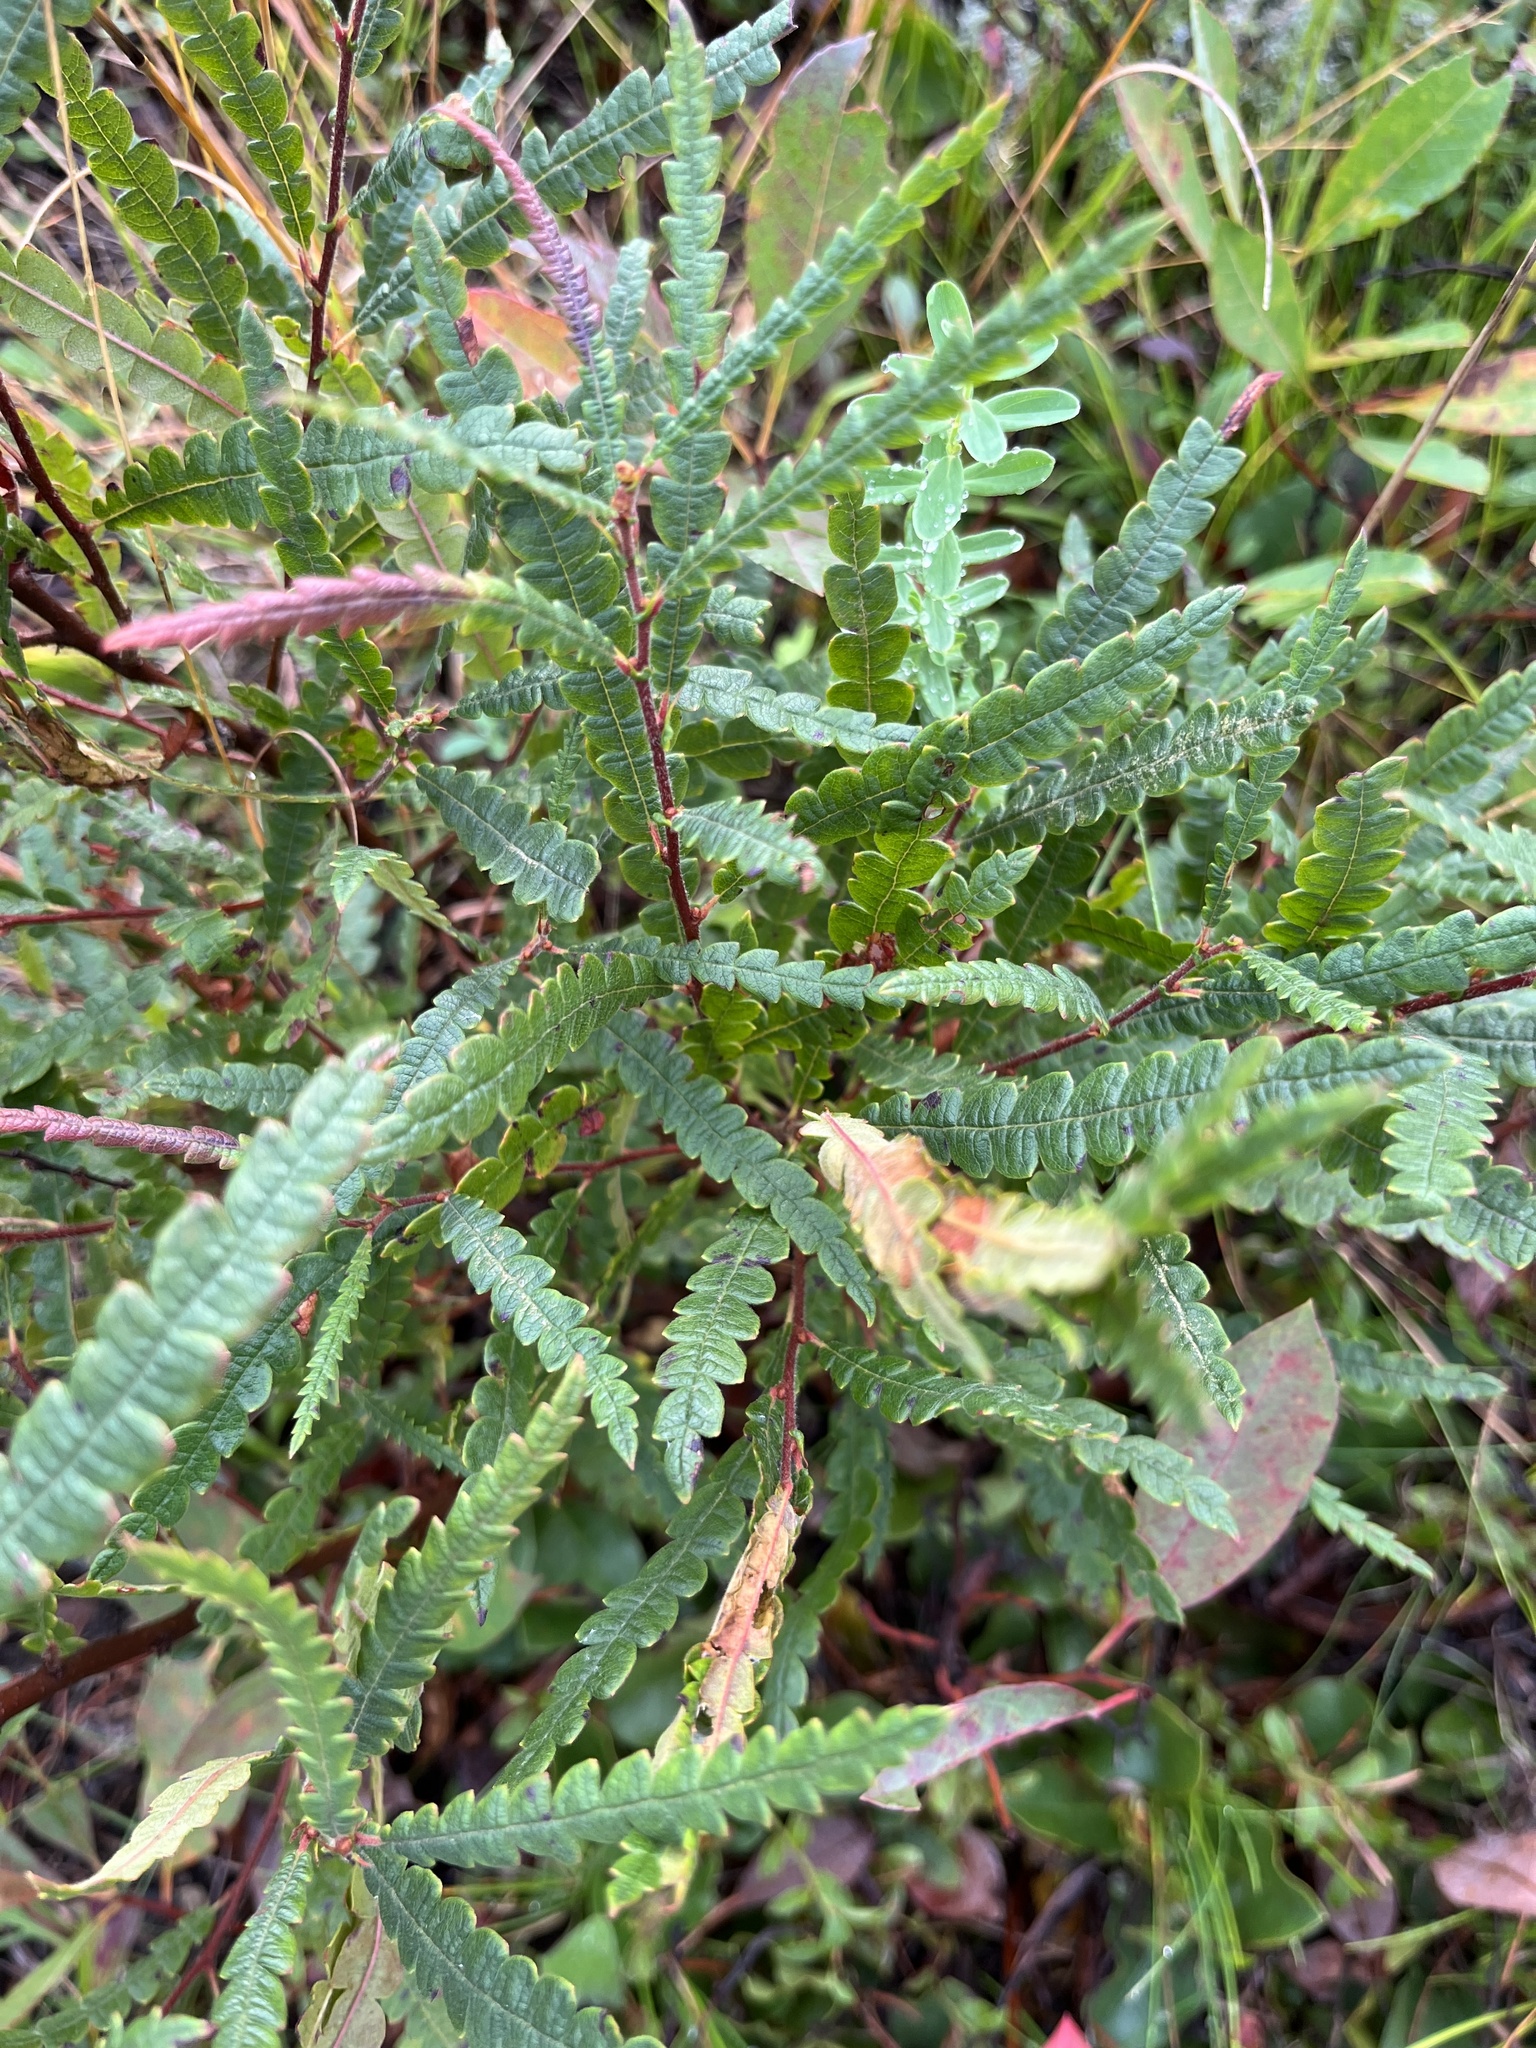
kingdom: Plantae
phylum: Tracheophyta
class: Magnoliopsida
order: Fagales
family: Myricaceae
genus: Comptonia
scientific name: Comptonia peregrina
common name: Sweet-fern
